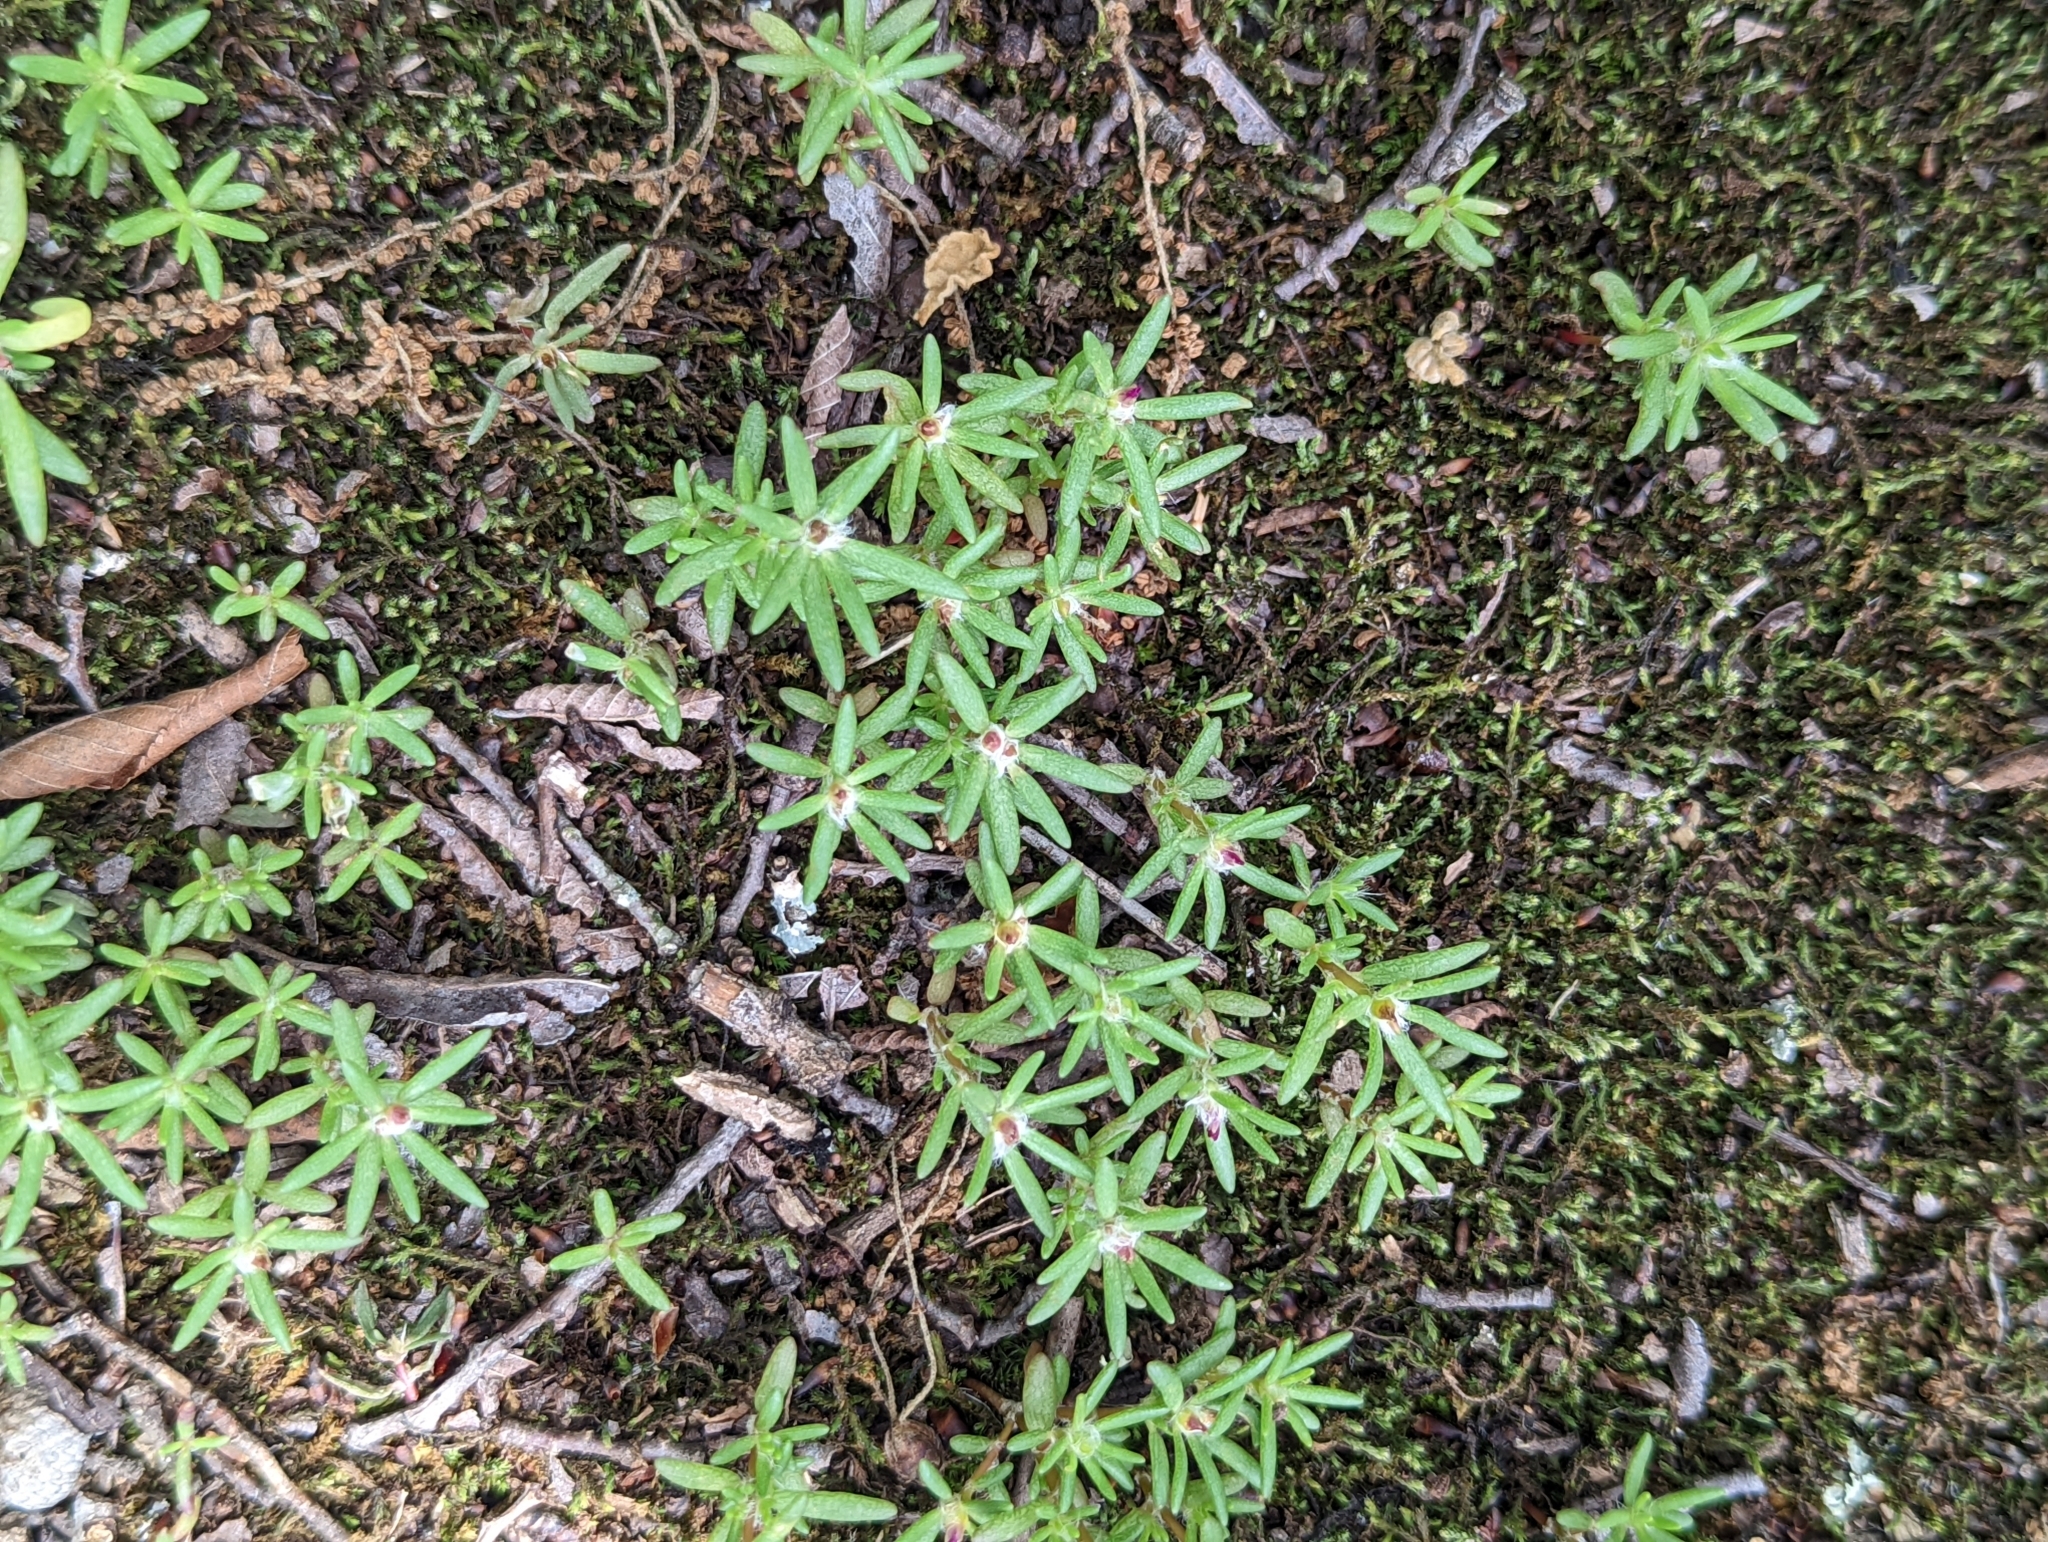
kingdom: Plantae
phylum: Tracheophyta
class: Magnoliopsida
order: Caryophyllales
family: Portulacaceae
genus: Portulaca
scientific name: Portulaca pilosa
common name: Kiss me quick
